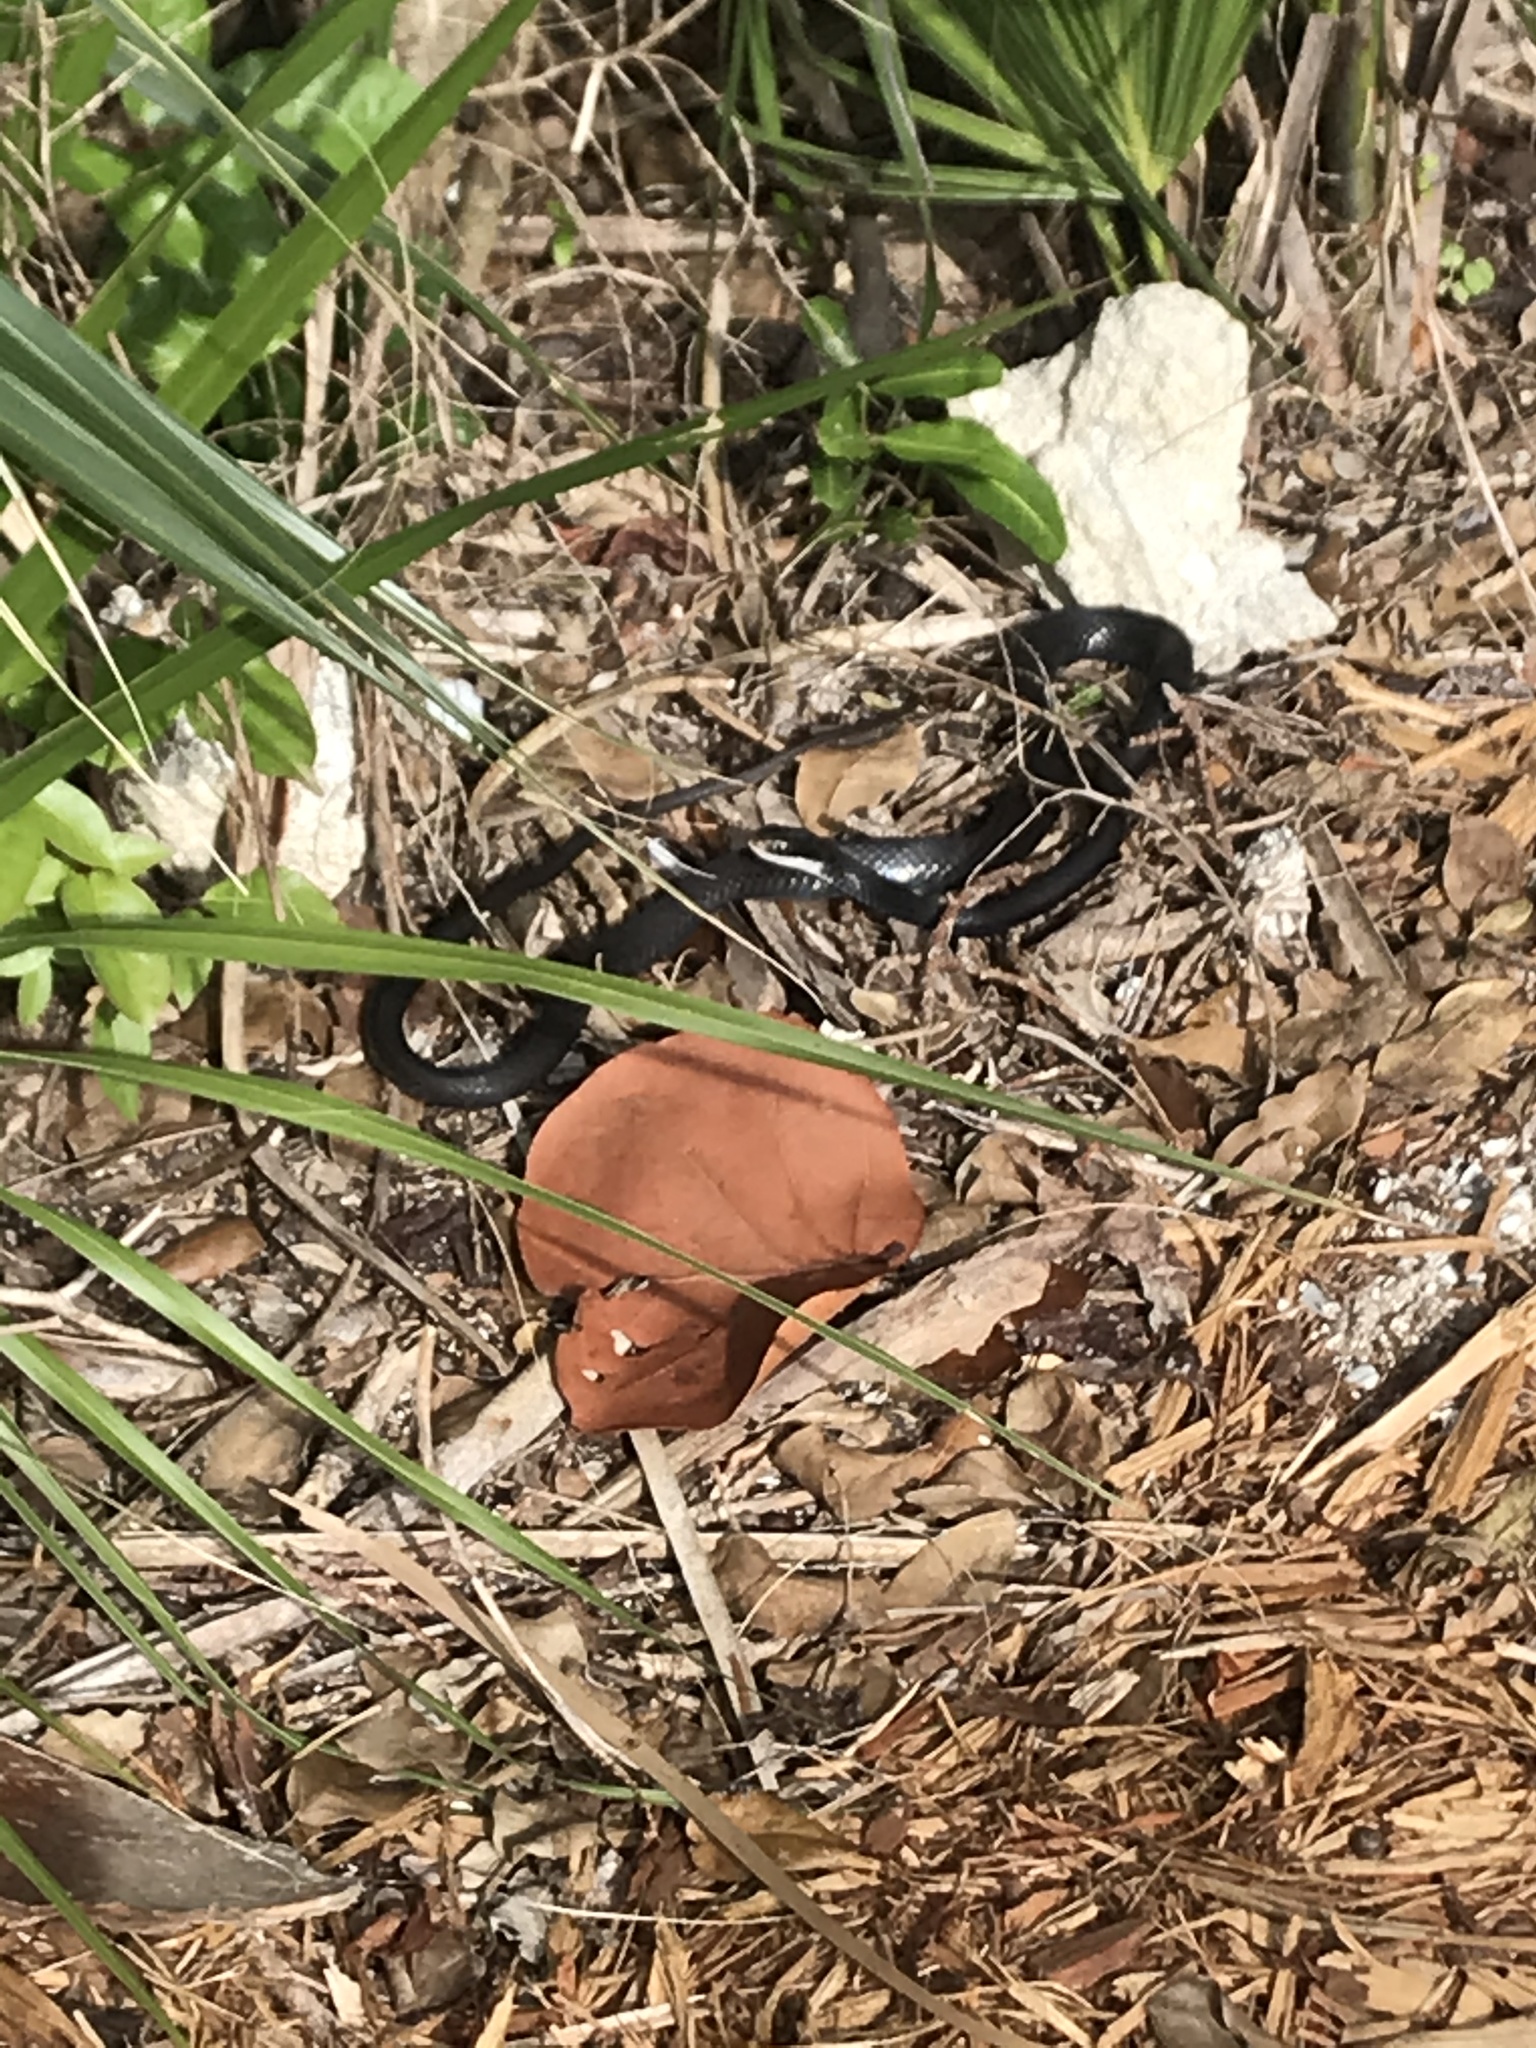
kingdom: Animalia
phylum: Chordata
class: Squamata
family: Colubridae
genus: Coluber
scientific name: Coluber constrictor
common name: Eastern racer
